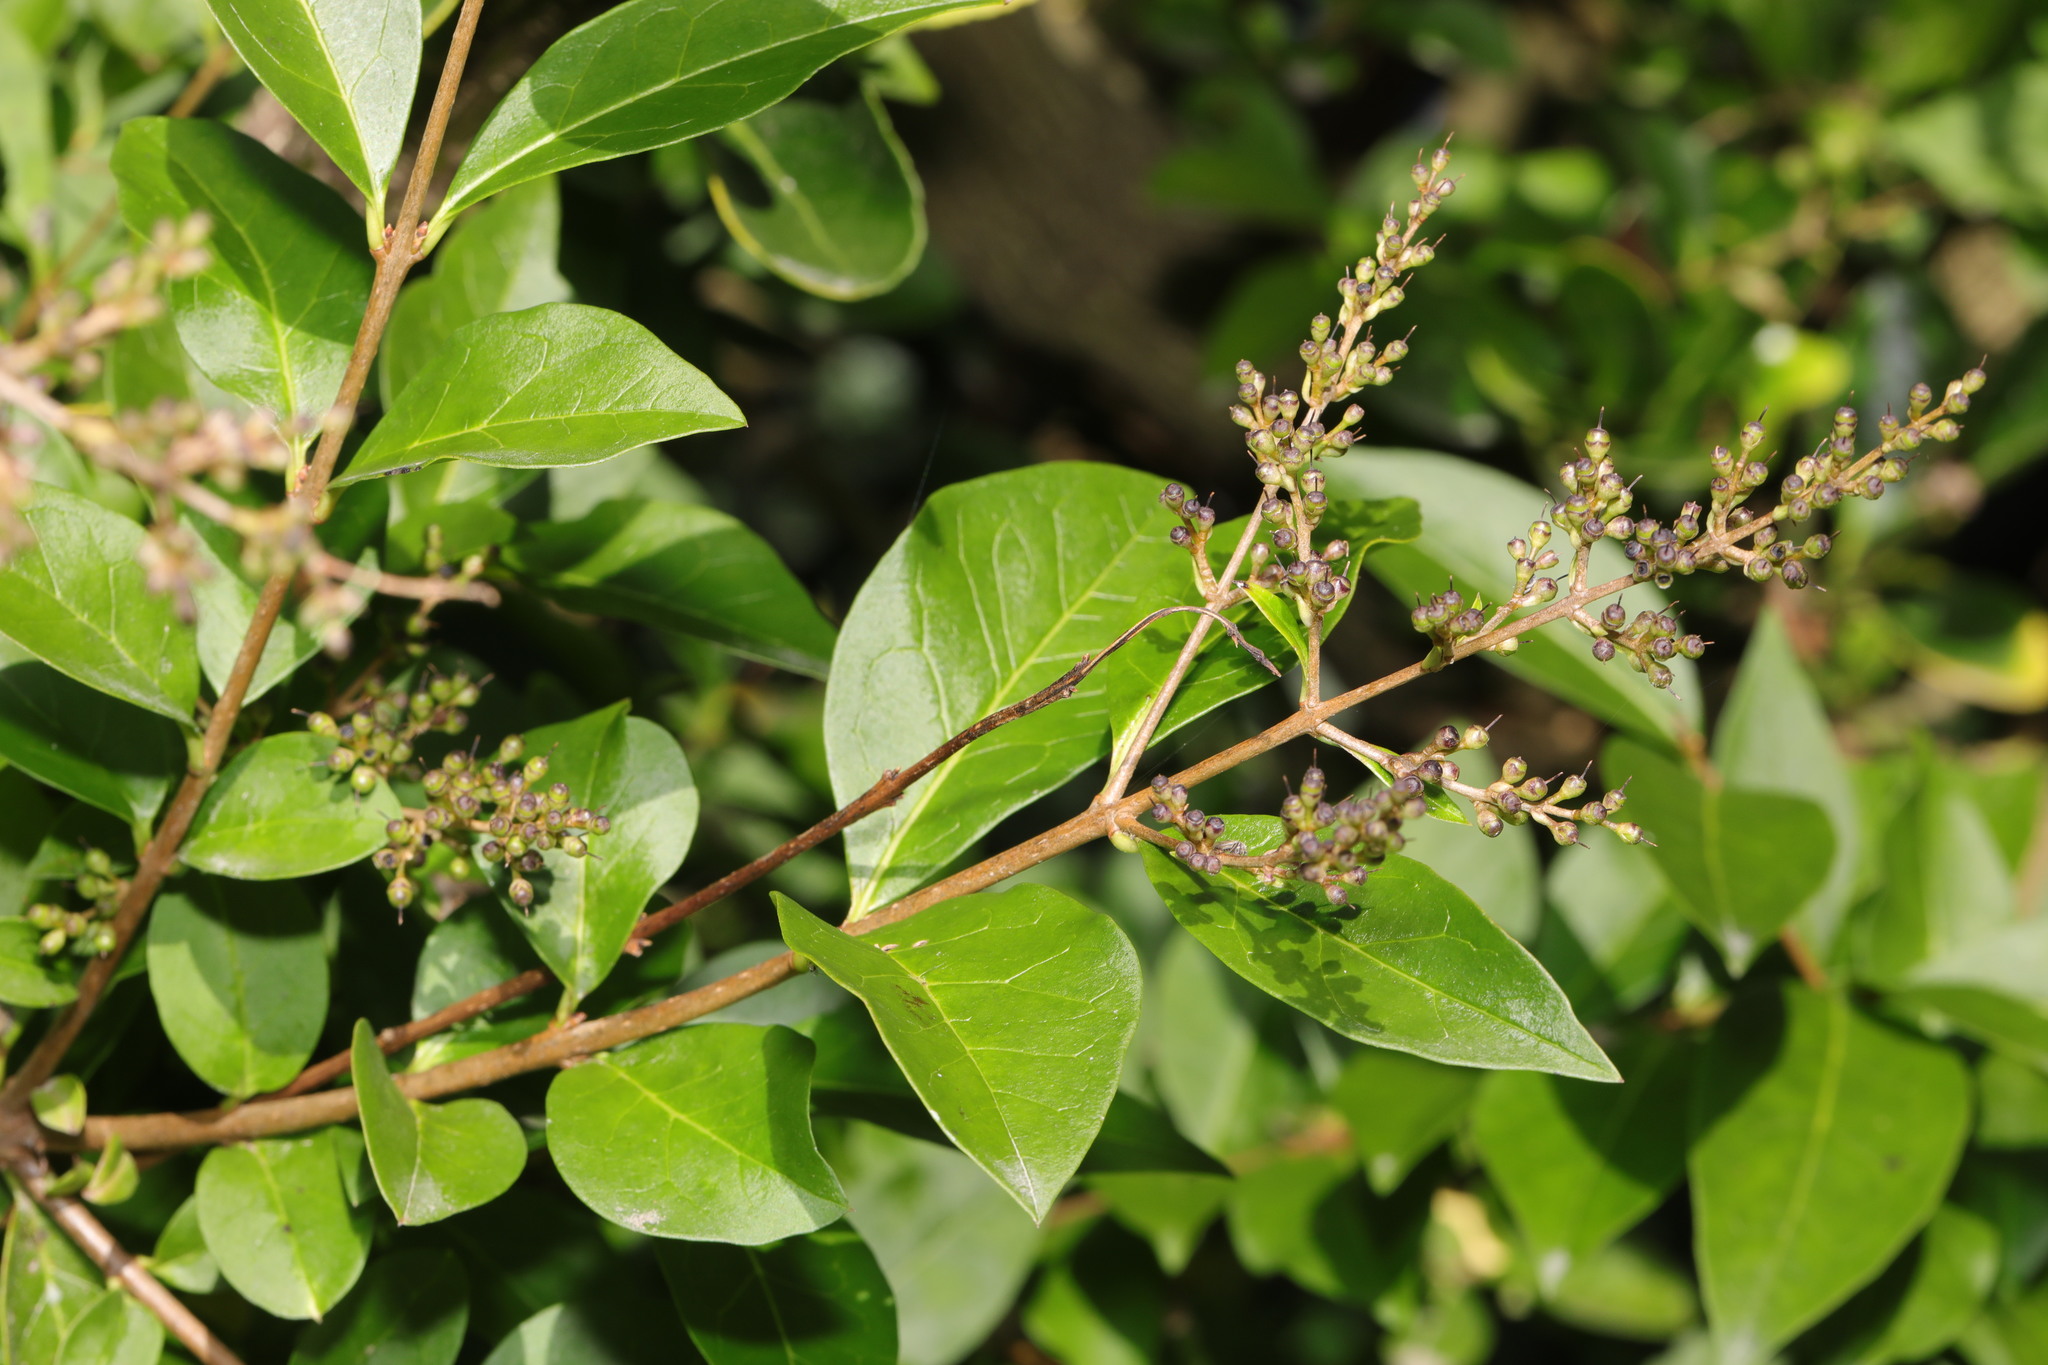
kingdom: Plantae
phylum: Tracheophyta
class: Magnoliopsida
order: Lamiales
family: Oleaceae
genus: Ligustrum
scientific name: Ligustrum ovalifolium
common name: California privet
